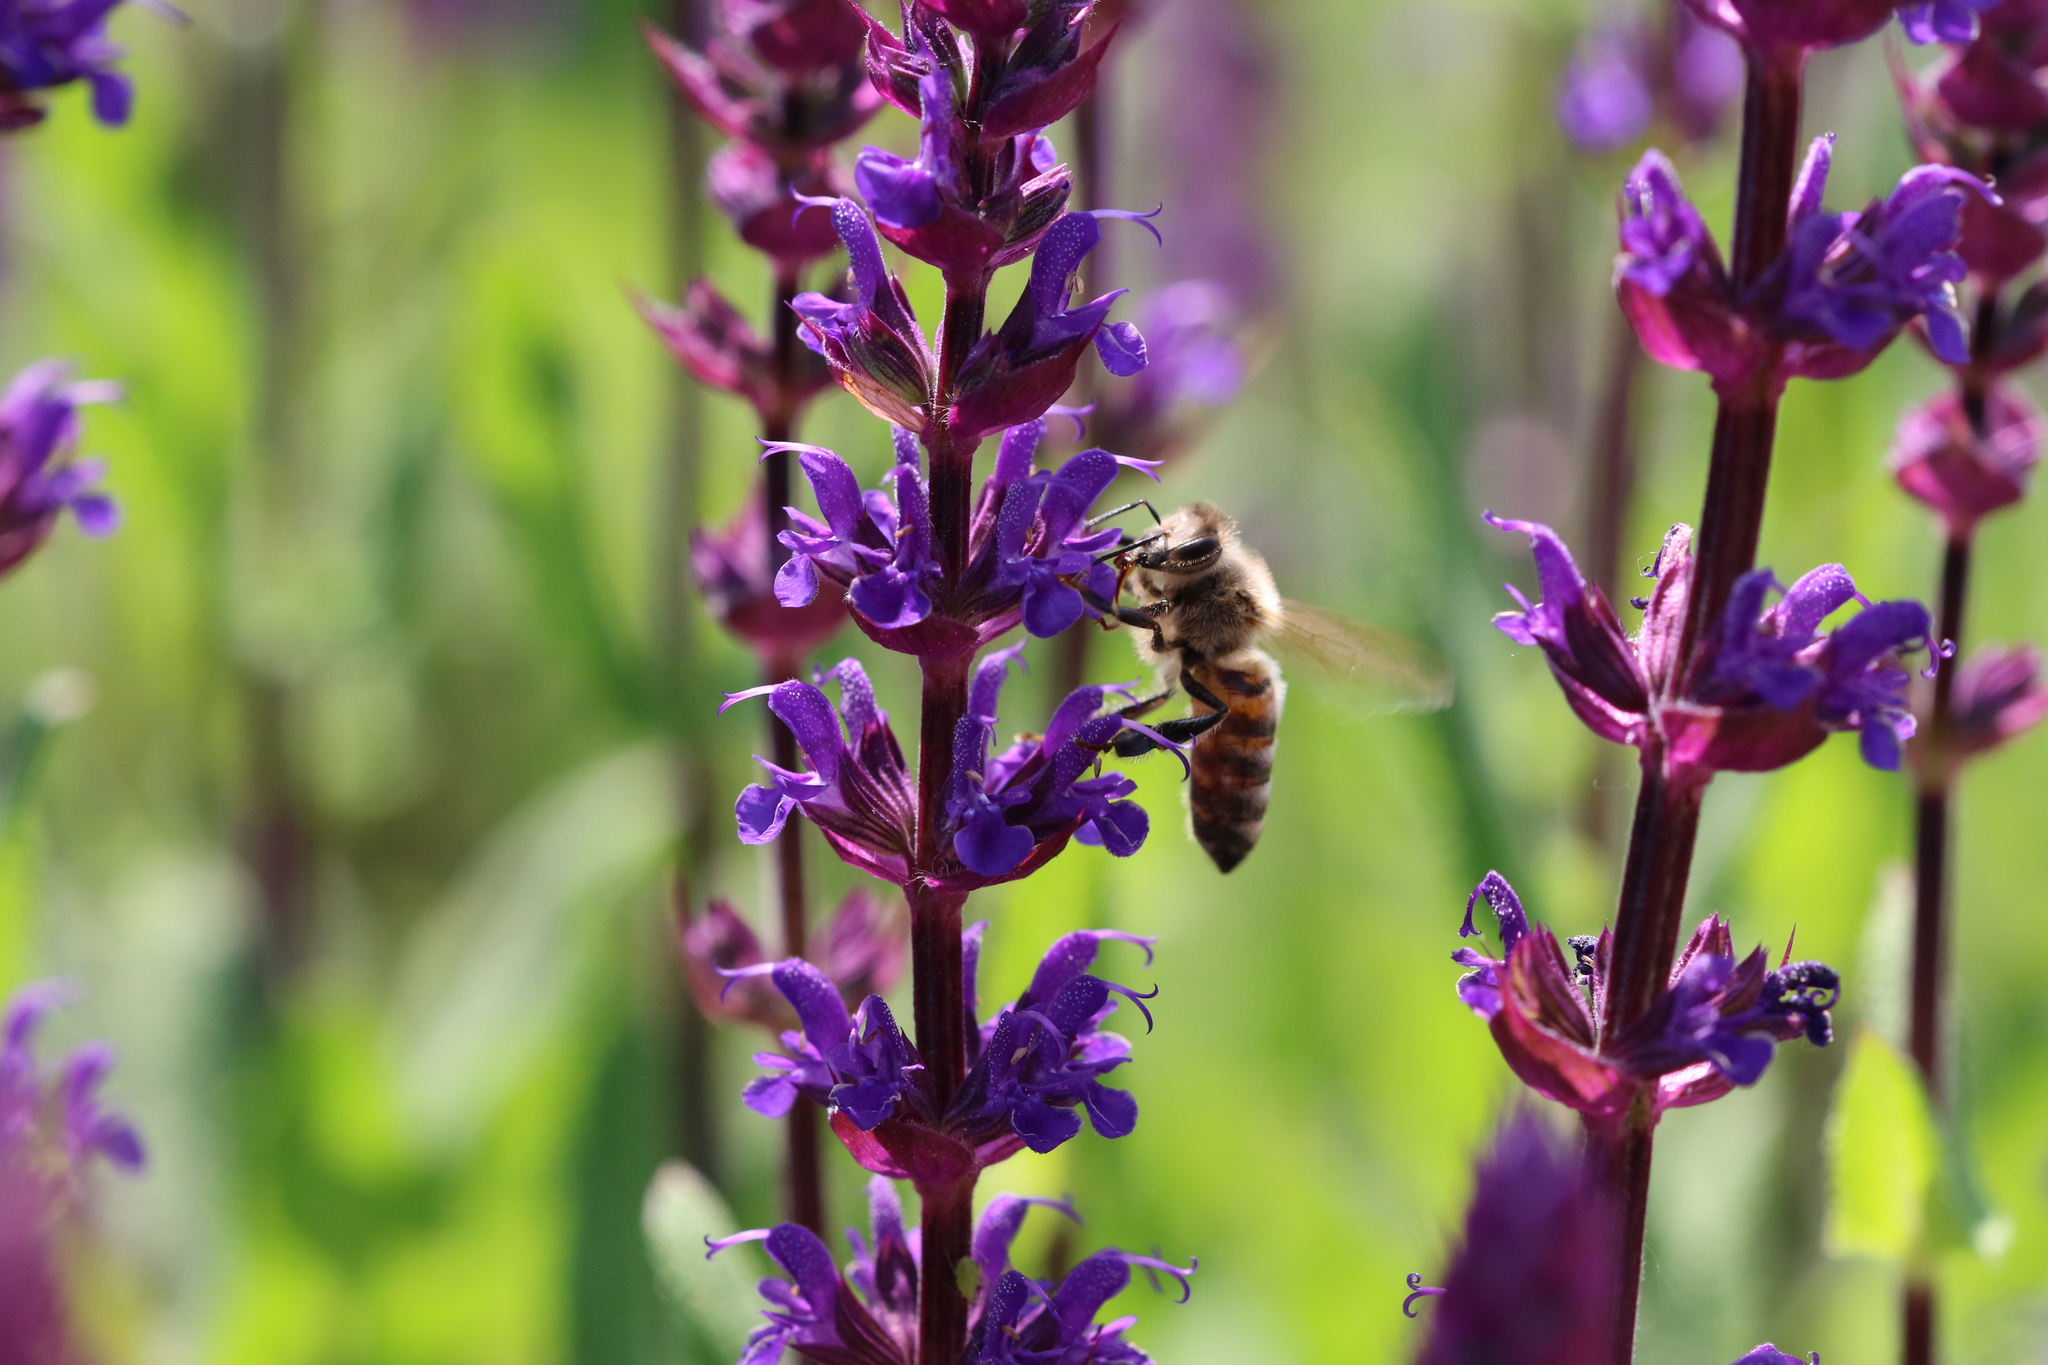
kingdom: Animalia
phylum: Arthropoda
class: Insecta
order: Hymenoptera
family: Apidae
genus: Apis
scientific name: Apis mellifera
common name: Honey bee
